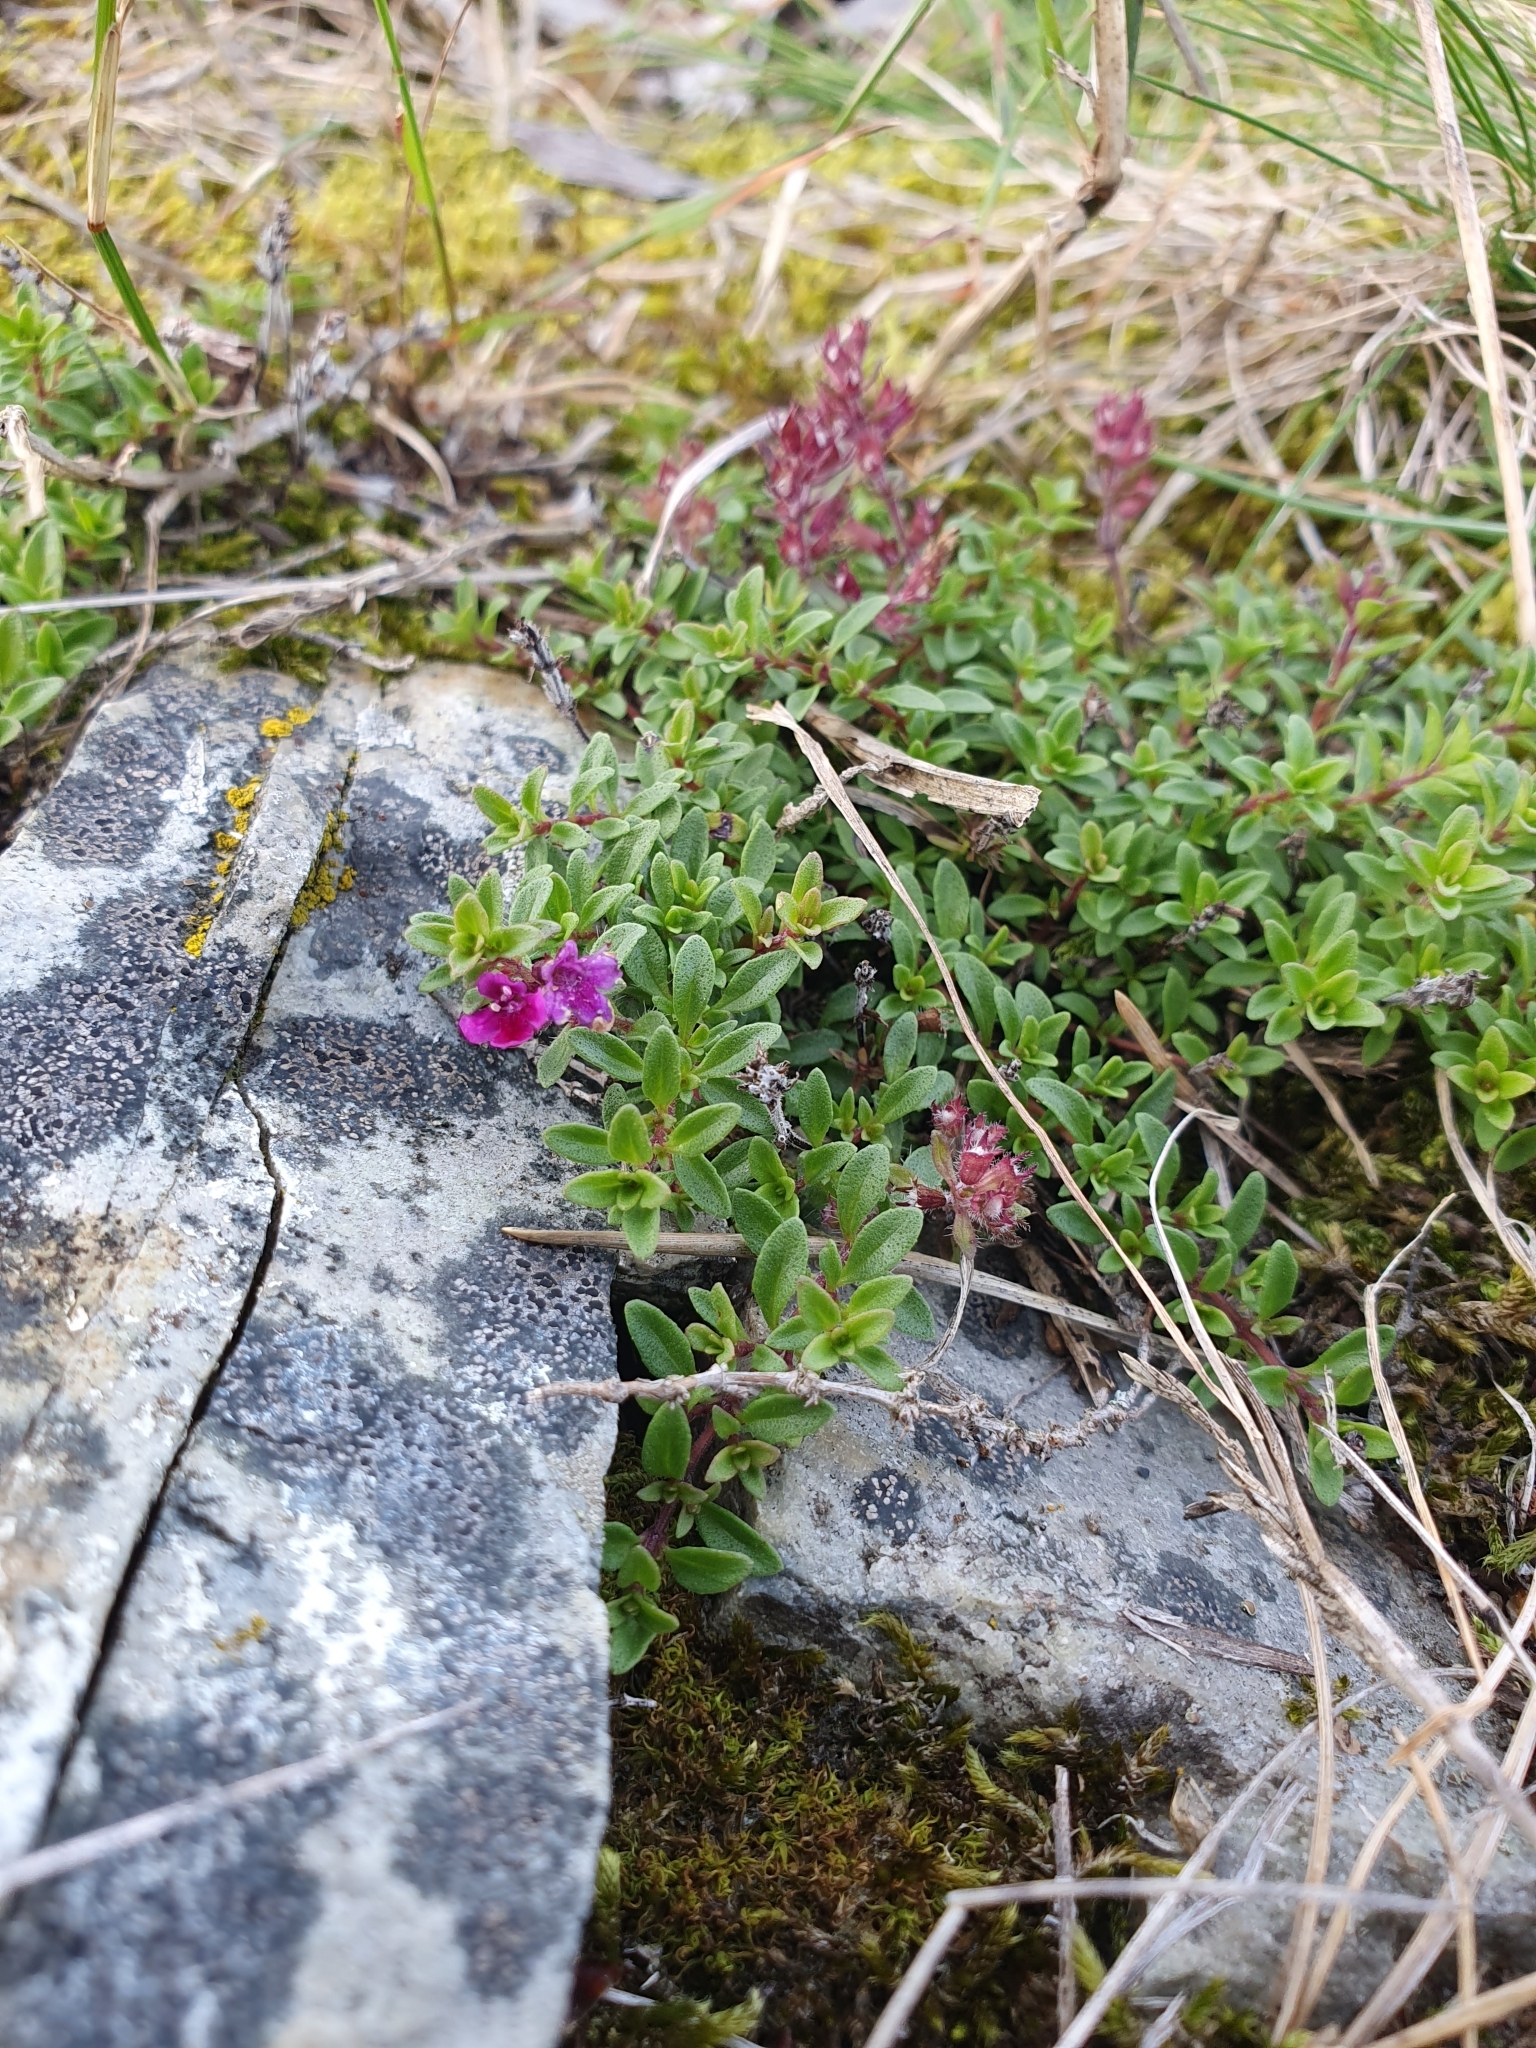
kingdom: Plantae
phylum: Tracheophyta
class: Magnoliopsida
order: Lamiales
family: Lamiaceae
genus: Thymus
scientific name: Thymus serpyllum
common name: Breckland thyme
